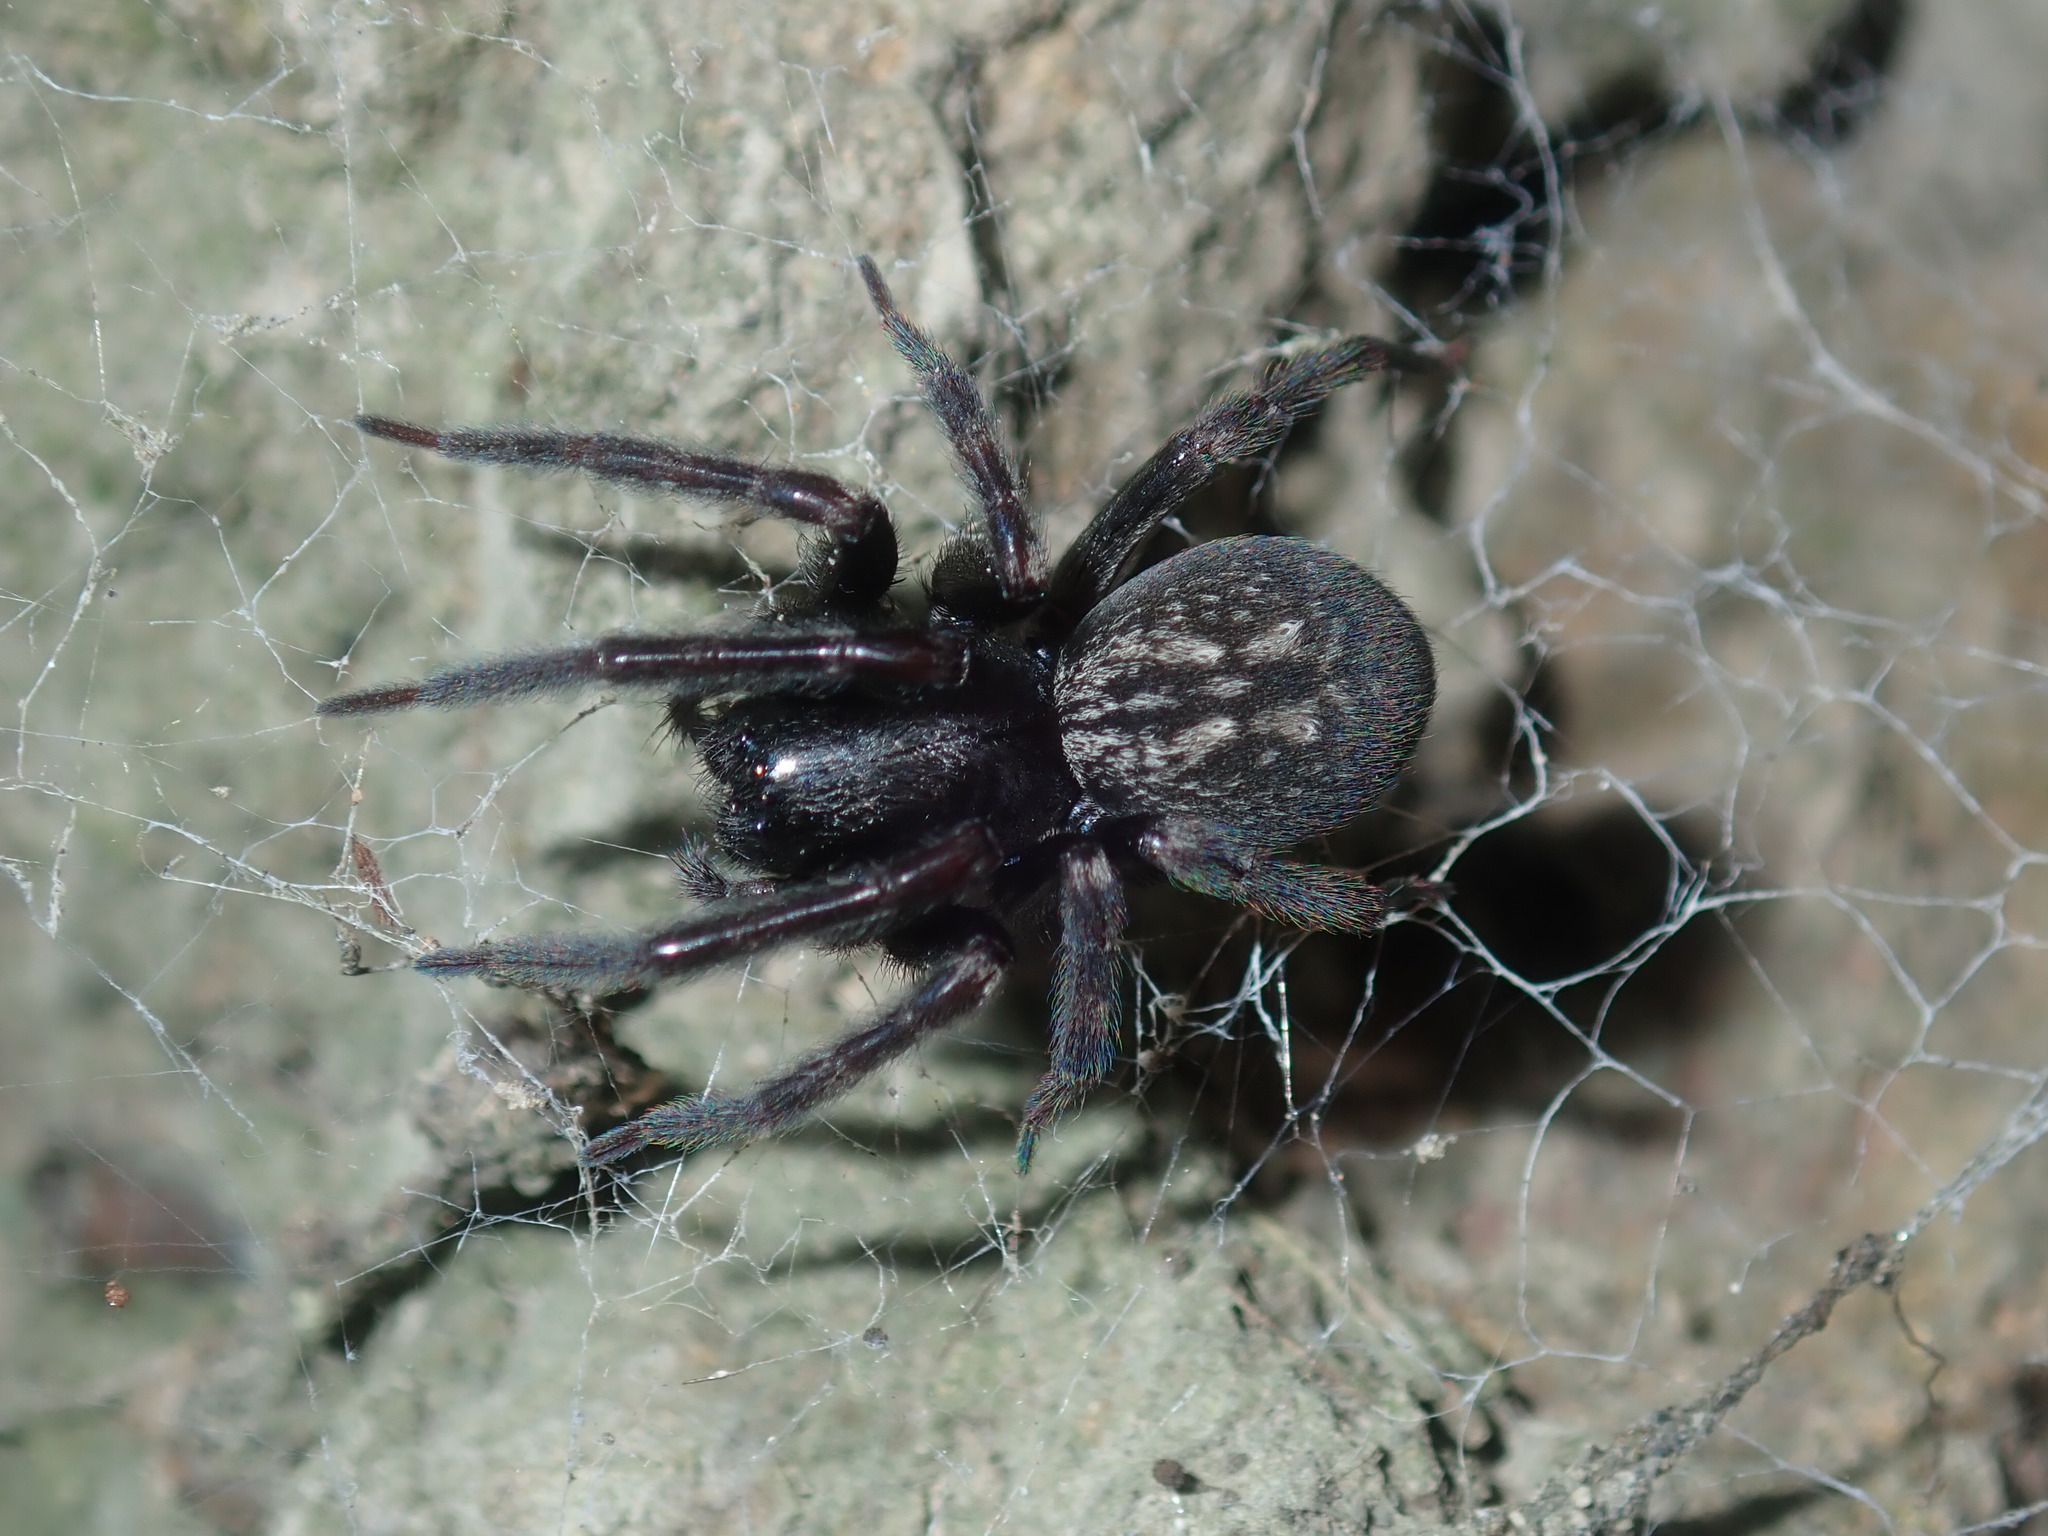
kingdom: Animalia
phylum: Arthropoda
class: Arachnida
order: Araneae
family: Desidae
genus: Badumna
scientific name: Badumna insignis
